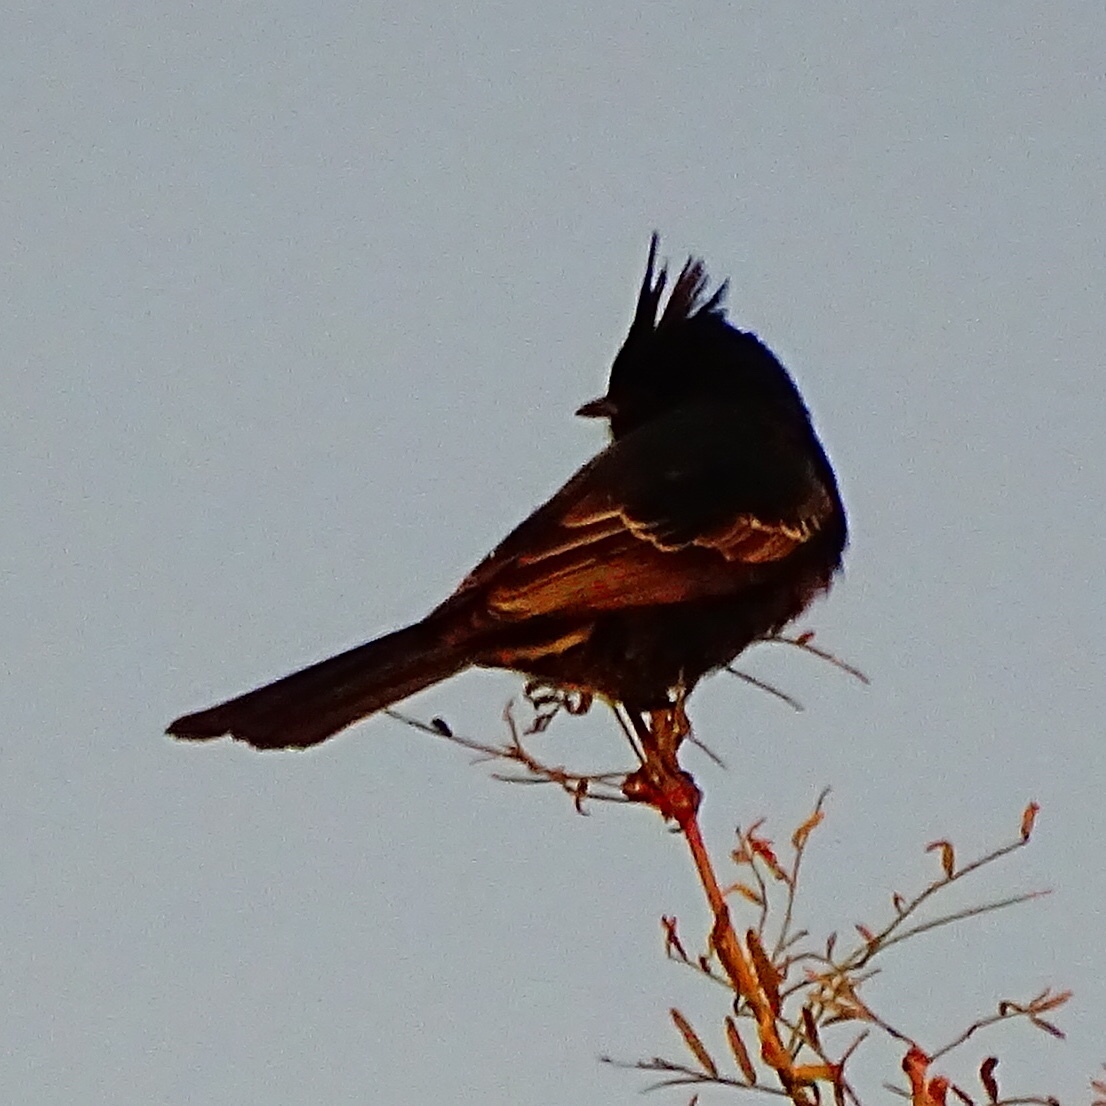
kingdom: Animalia
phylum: Chordata
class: Aves
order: Passeriformes
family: Ptilogonatidae
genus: Phainopepla
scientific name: Phainopepla nitens
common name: Phainopepla
